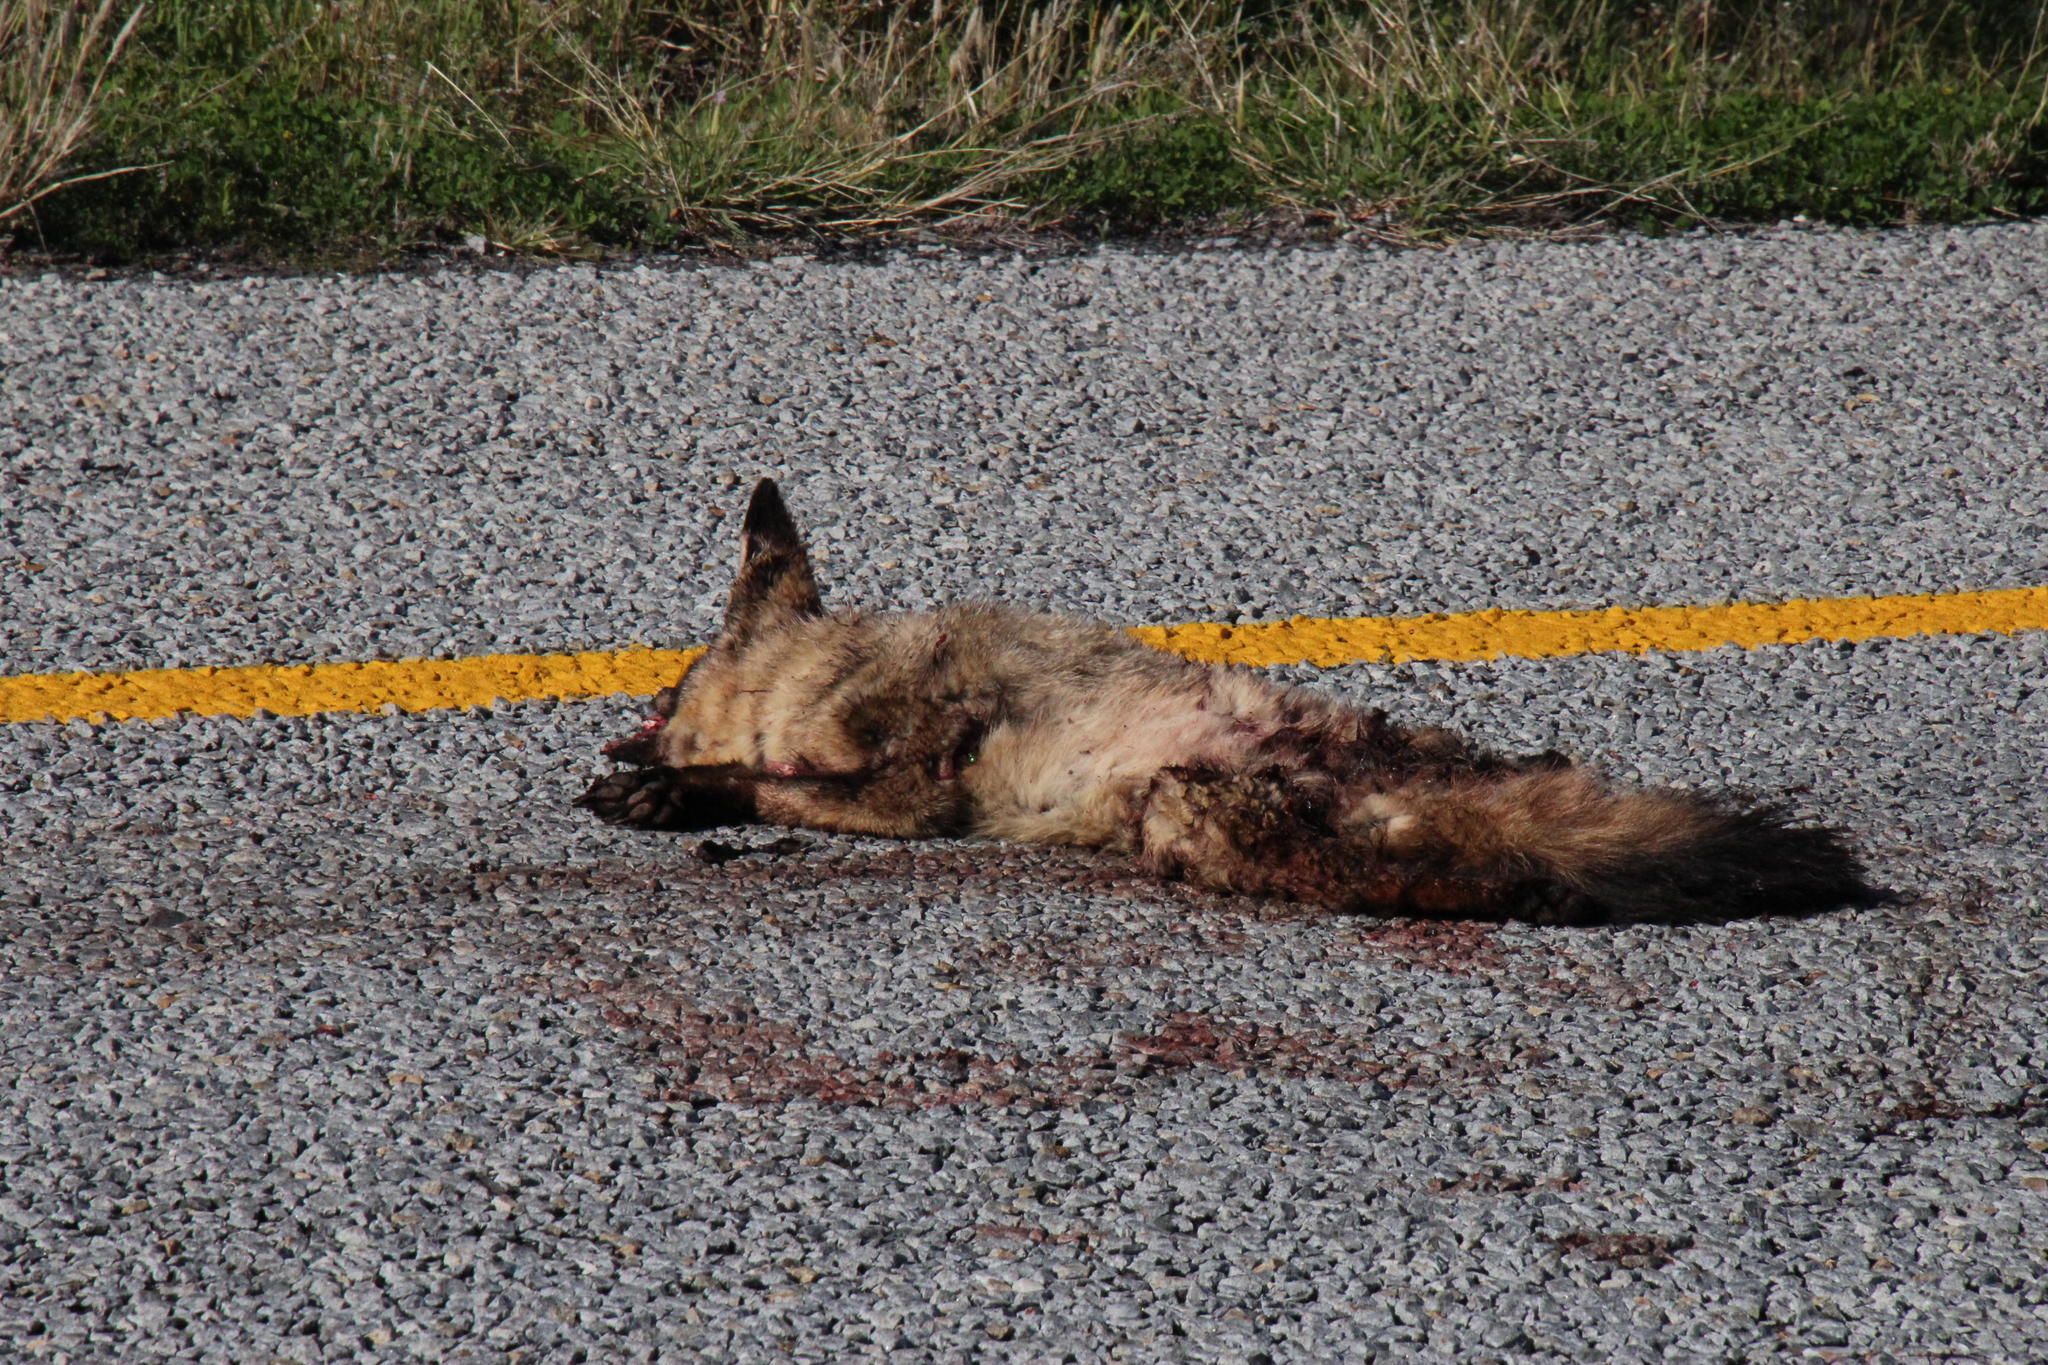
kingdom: Animalia
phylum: Chordata
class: Mammalia
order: Carnivora
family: Canidae
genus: Otocyon
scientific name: Otocyon megalotis
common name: Bat-eared fox
